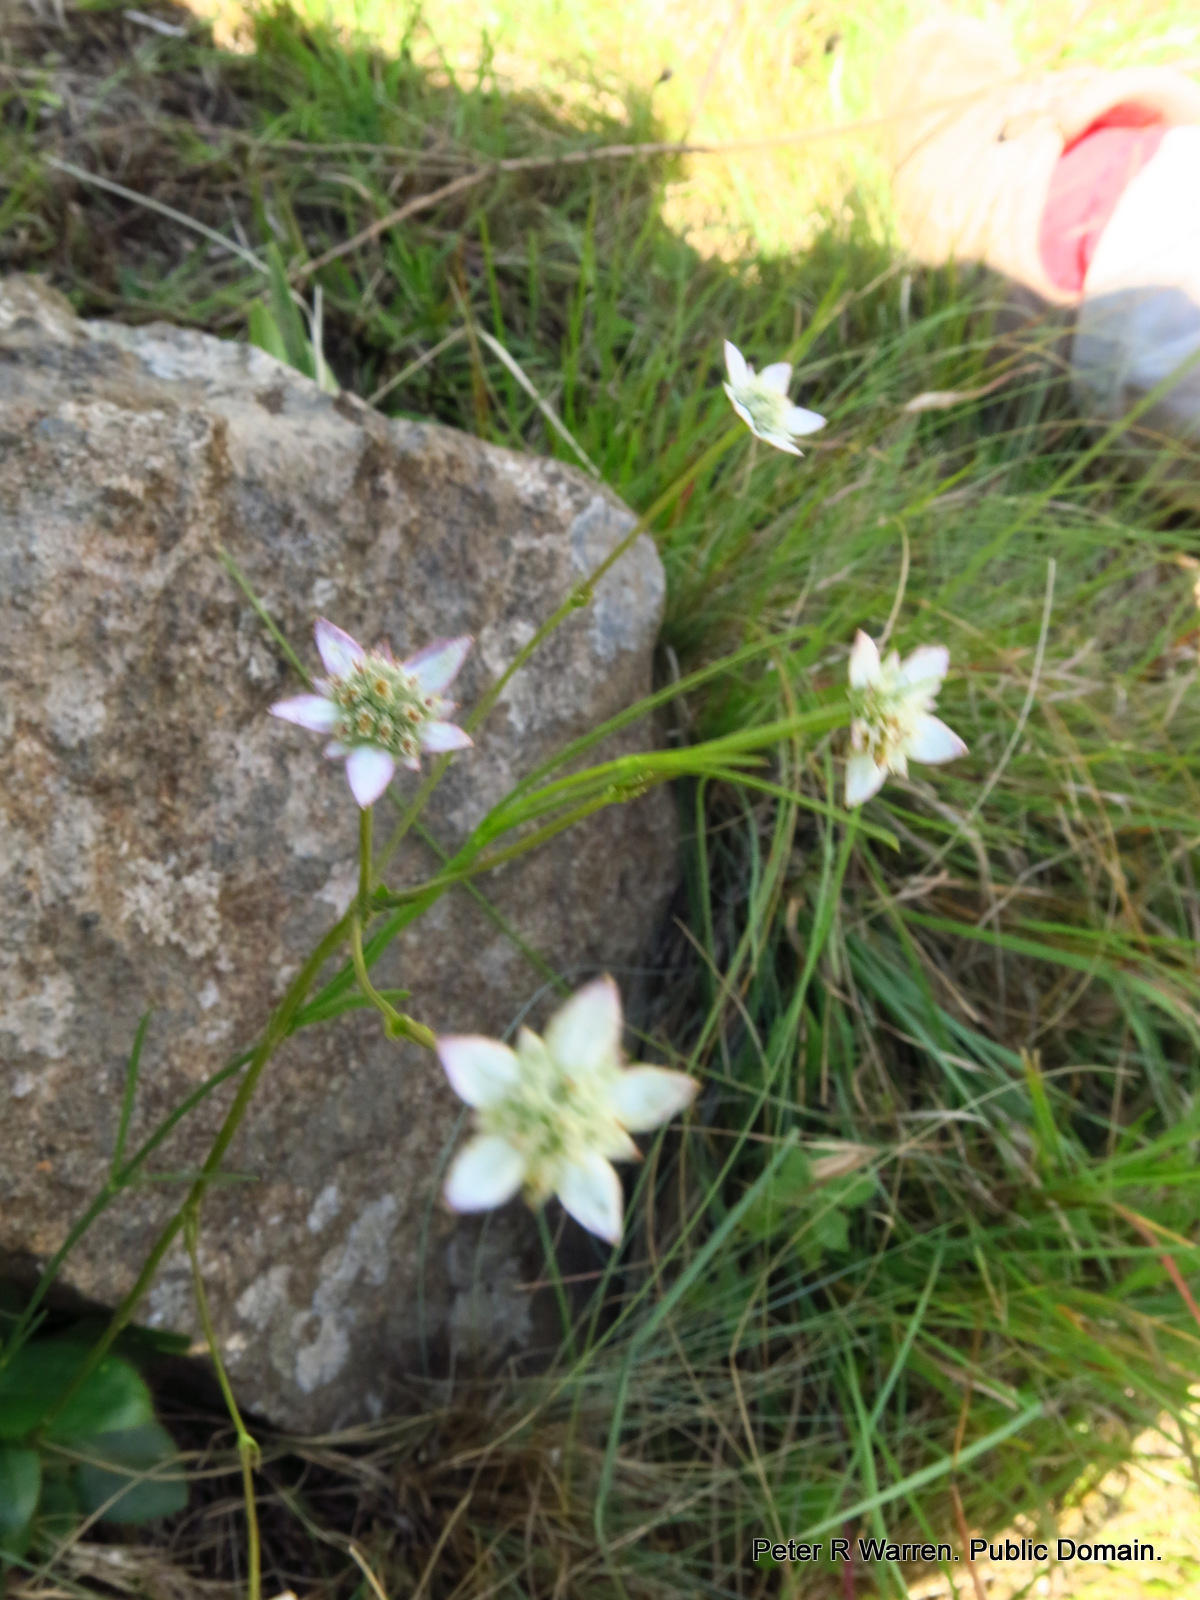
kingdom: Plantae
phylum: Tracheophyta
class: Magnoliopsida
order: Apiales
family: Apiaceae
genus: Alepidea
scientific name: Alepidea natalensis
